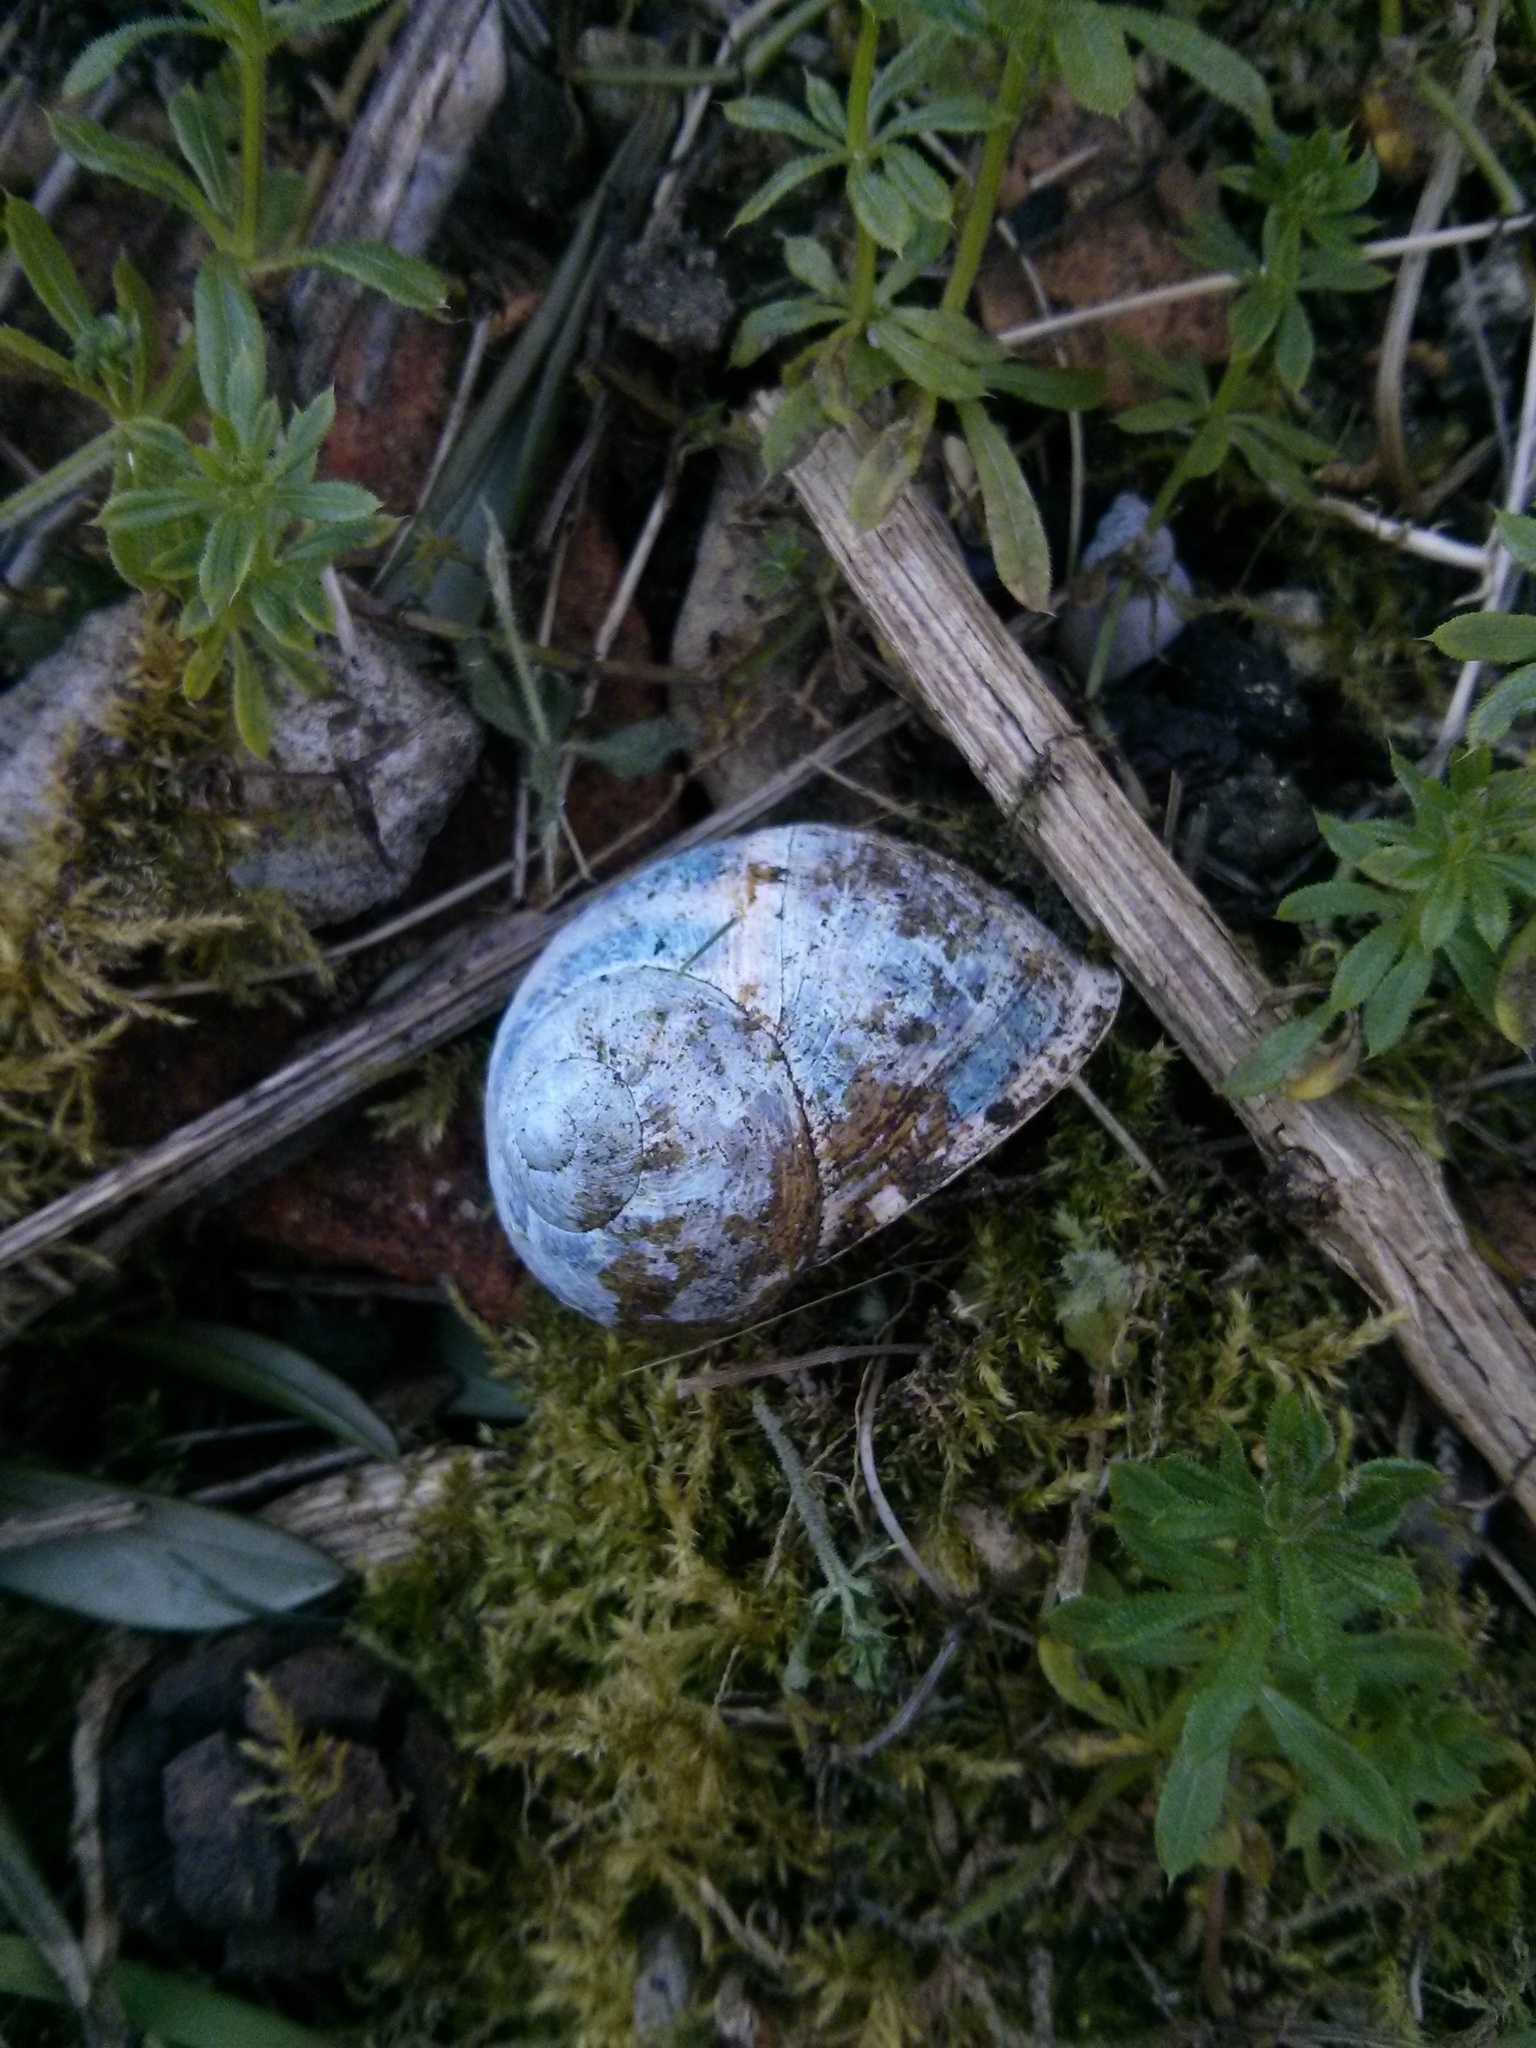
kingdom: Animalia
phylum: Mollusca
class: Gastropoda
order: Stylommatophora
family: Helicidae
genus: Cornu
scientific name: Cornu aspersum
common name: Brown garden snail
